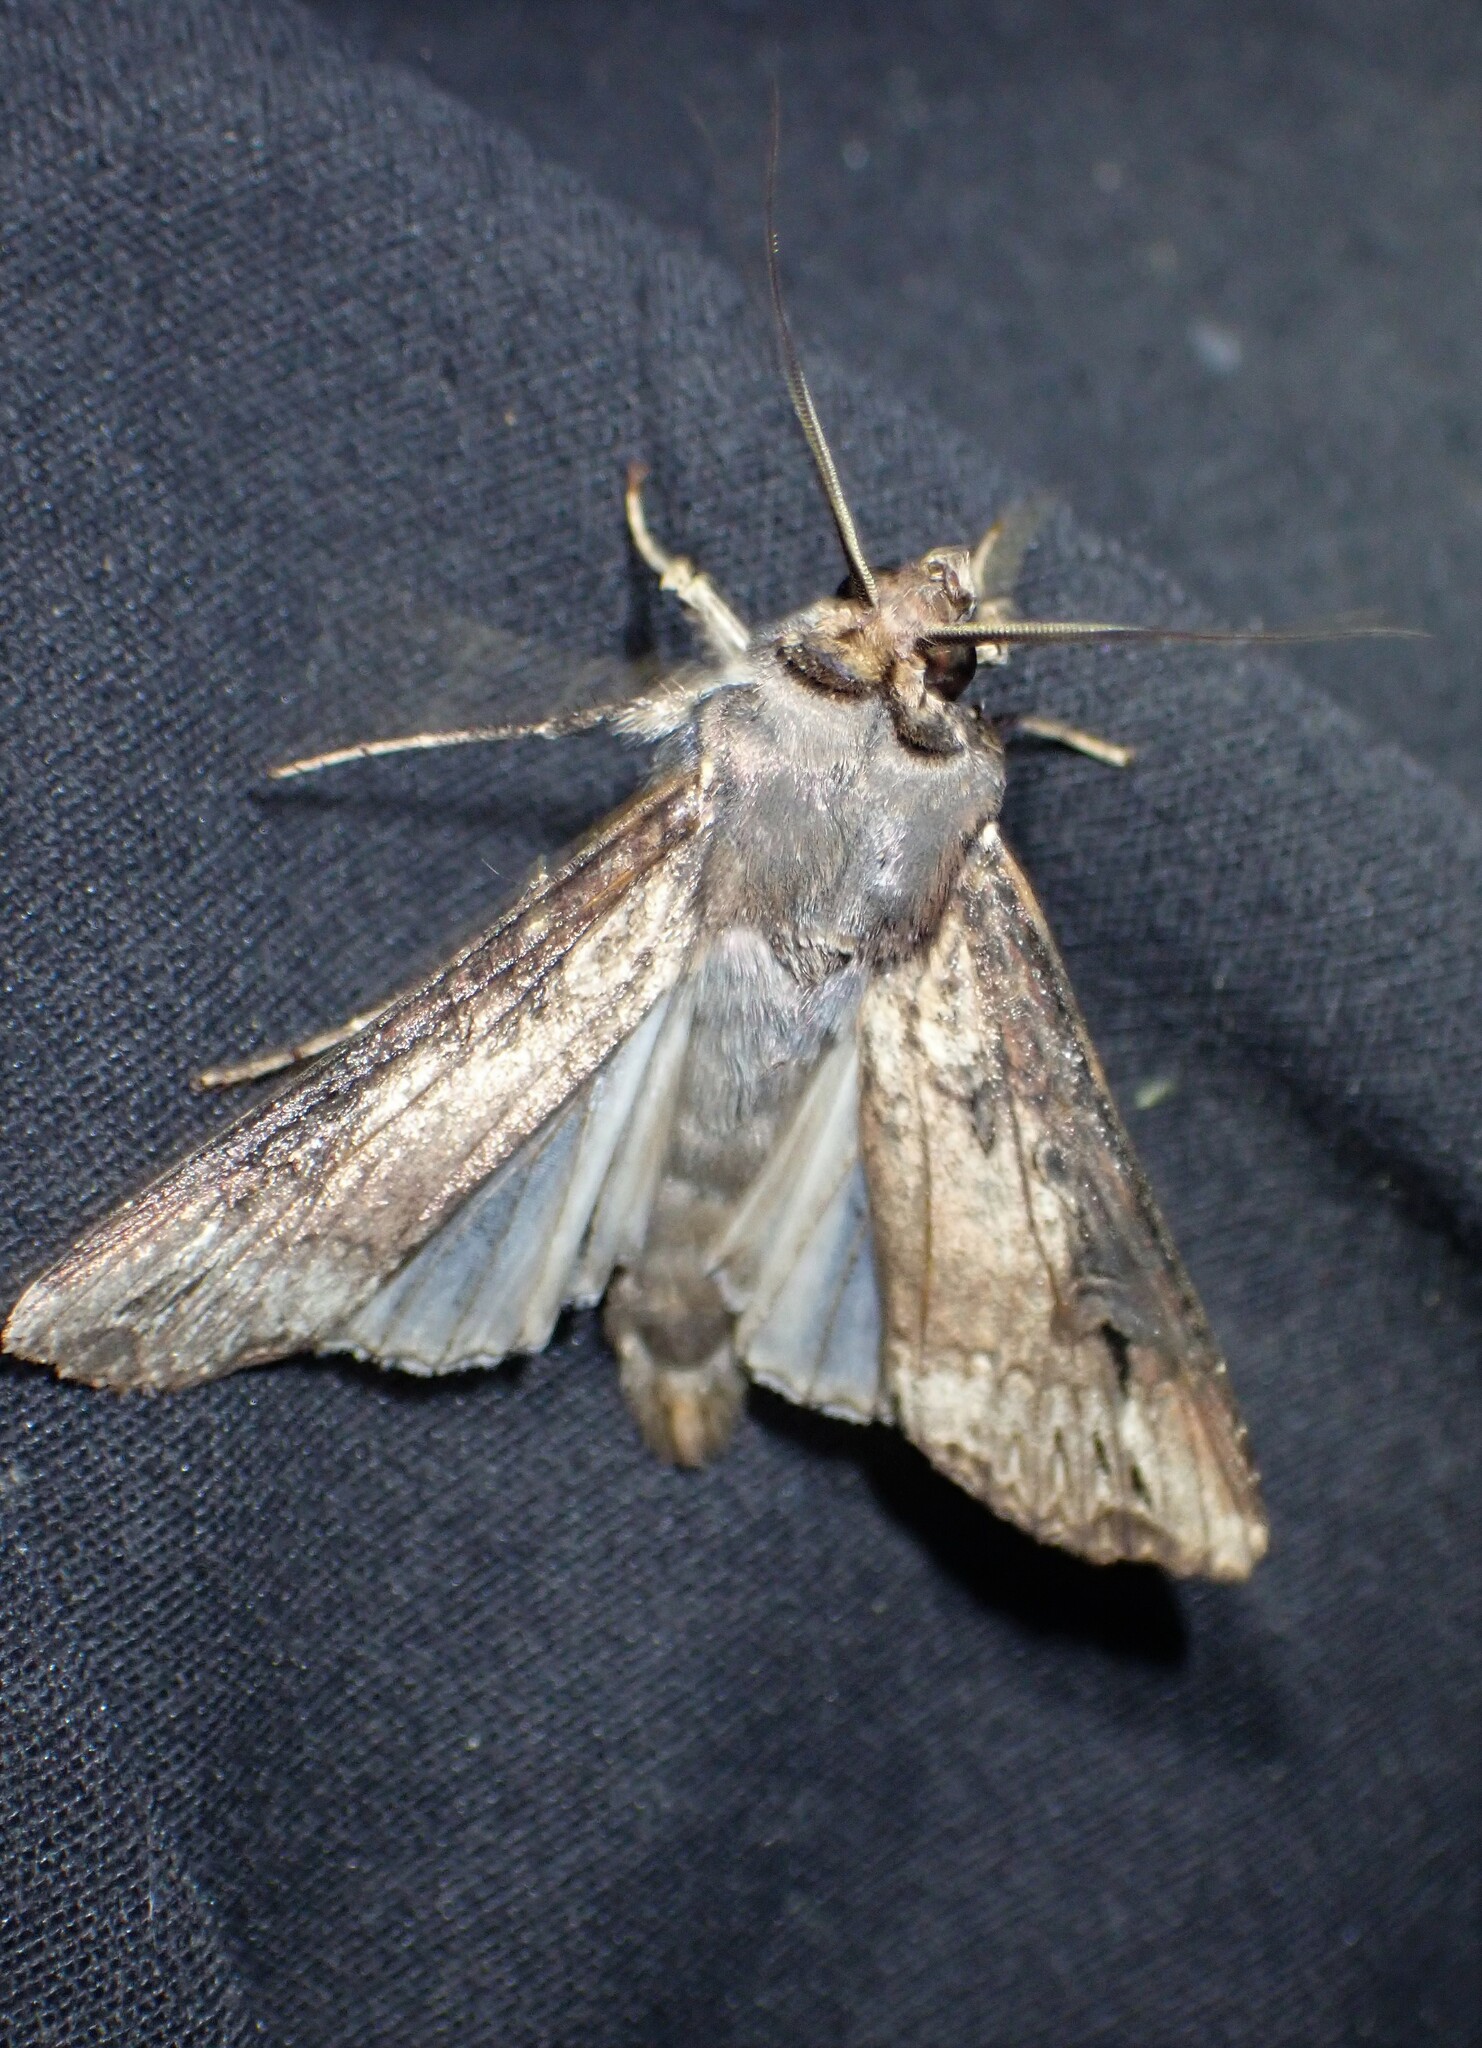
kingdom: Animalia
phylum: Arthropoda
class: Insecta
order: Lepidoptera
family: Noctuidae
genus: Agrotis
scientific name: Agrotis ipsilon
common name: Dark sword-grass
